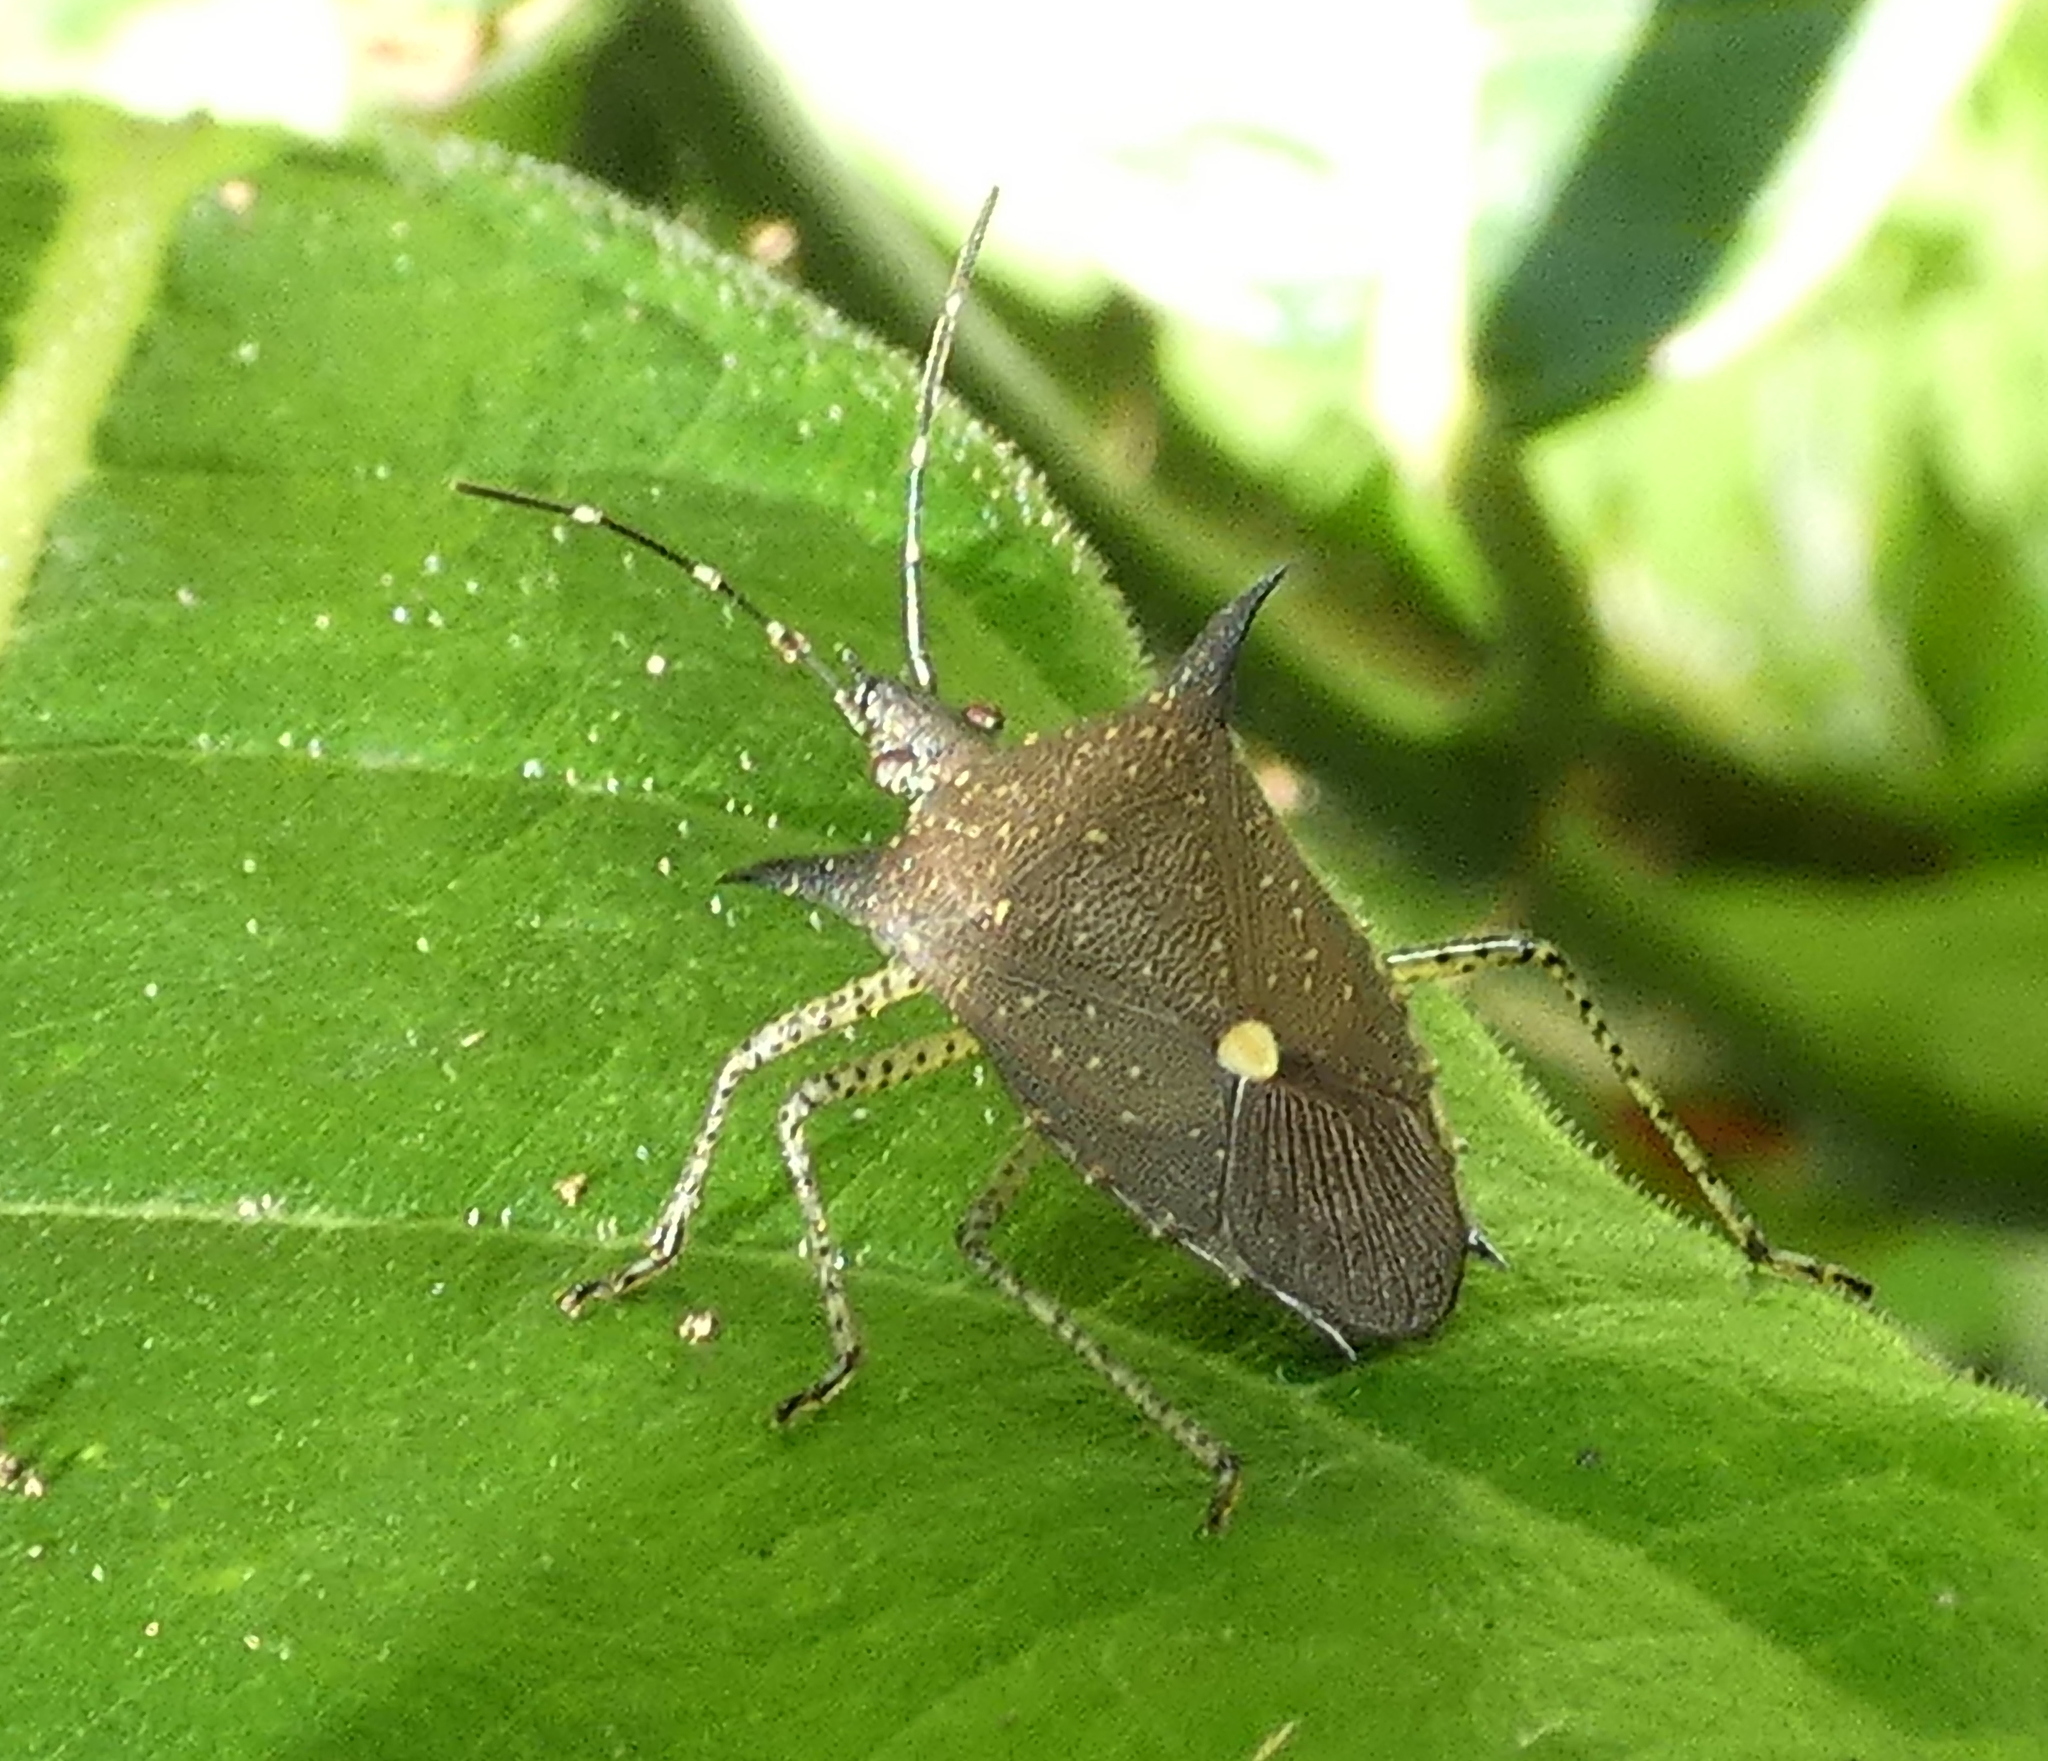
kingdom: Animalia
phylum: Arthropoda
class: Insecta
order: Hemiptera
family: Pentatomidae
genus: Proxys
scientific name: Proxys albopunctulatus
